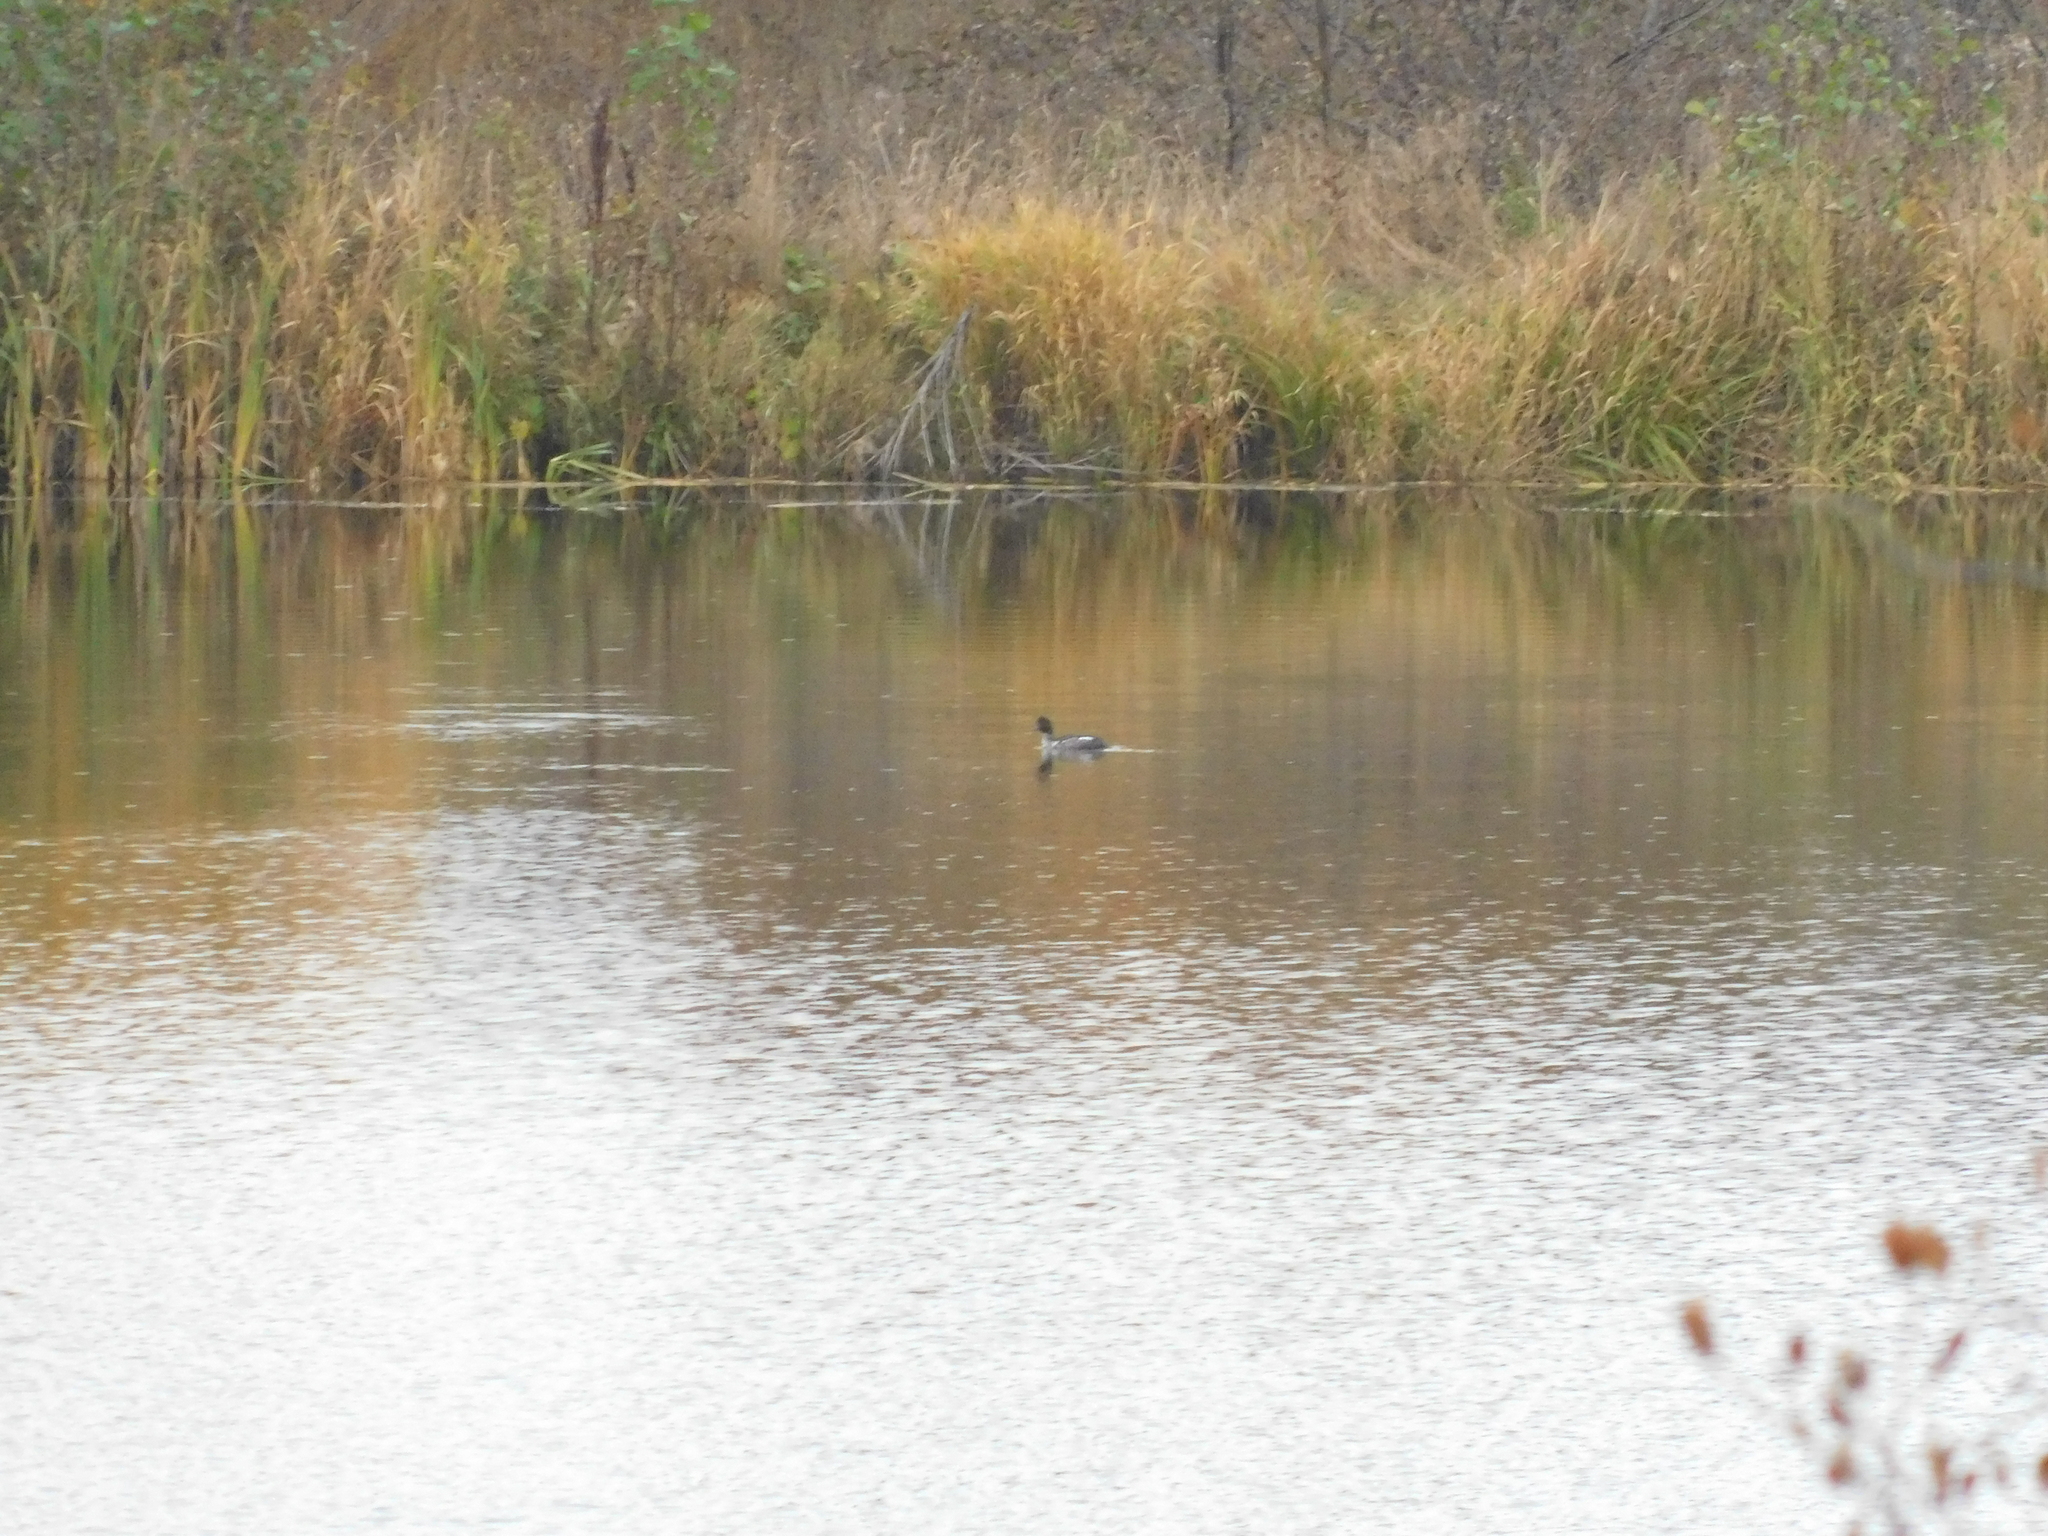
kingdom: Animalia
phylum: Chordata
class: Aves
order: Anseriformes
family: Anatidae
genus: Bucephala
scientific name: Bucephala clangula
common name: Common goldeneye
